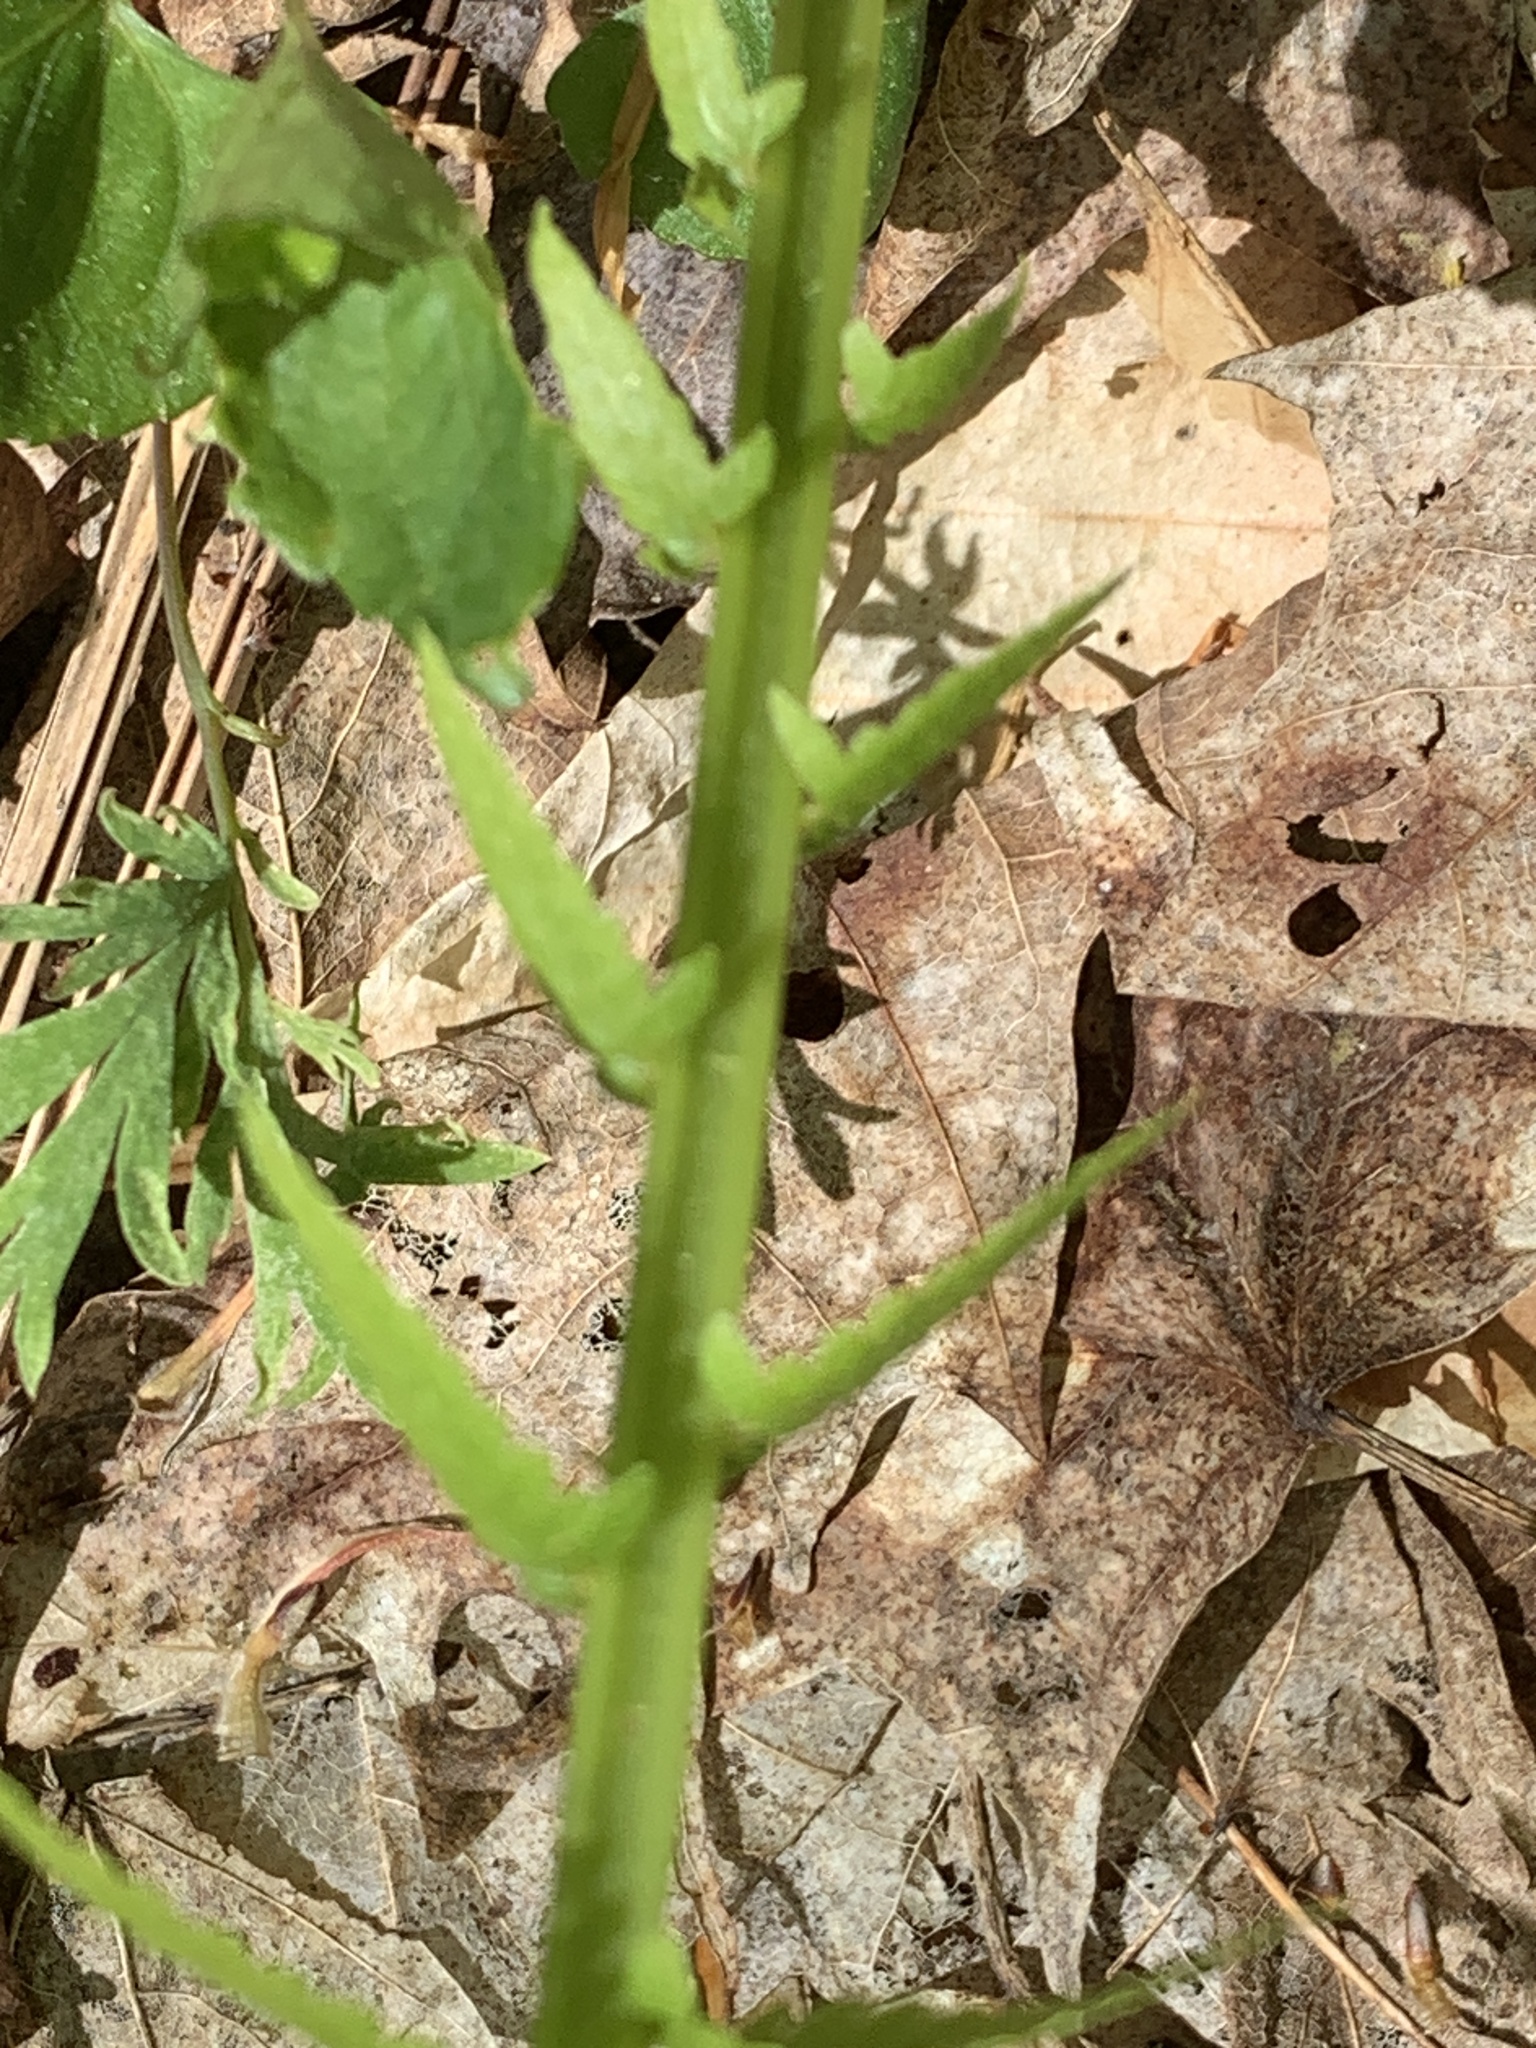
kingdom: Plantae
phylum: Tracheophyta
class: Polypodiopsida
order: Polypodiales
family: Onocleaceae
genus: Matteuccia
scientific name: Matteuccia struthiopteris
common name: Ostrich fern
